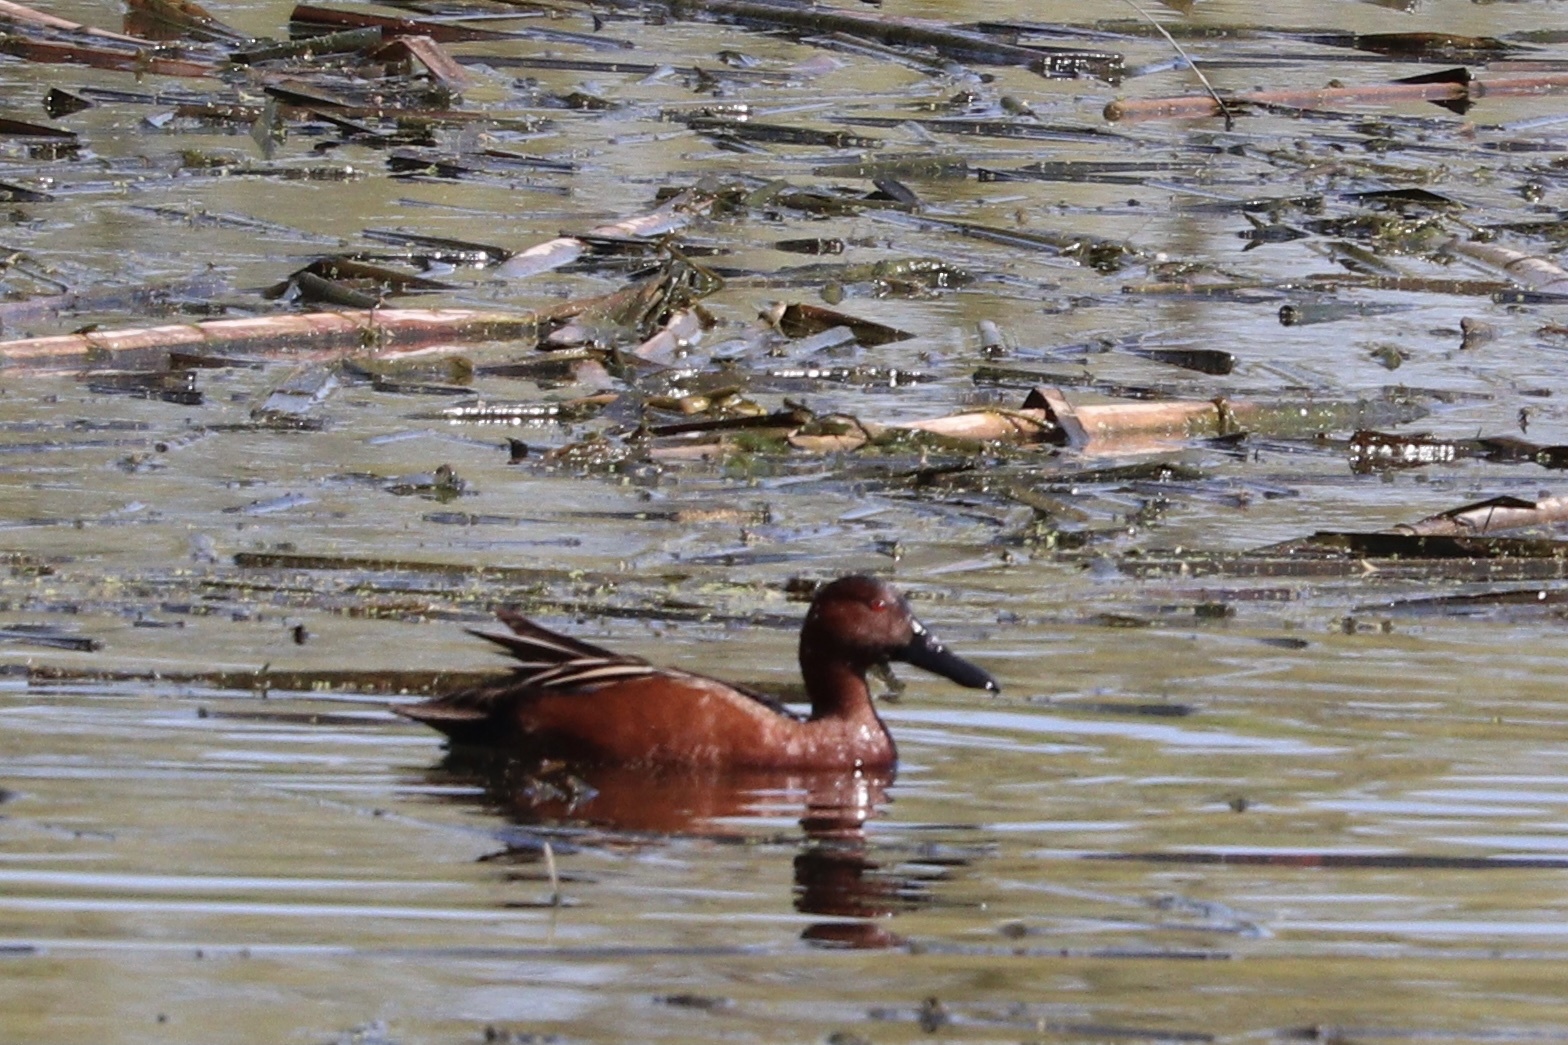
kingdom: Animalia
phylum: Chordata
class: Aves
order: Anseriformes
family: Anatidae
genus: Spatula
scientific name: Spatula cyanoptera
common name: Cinnamon teal
